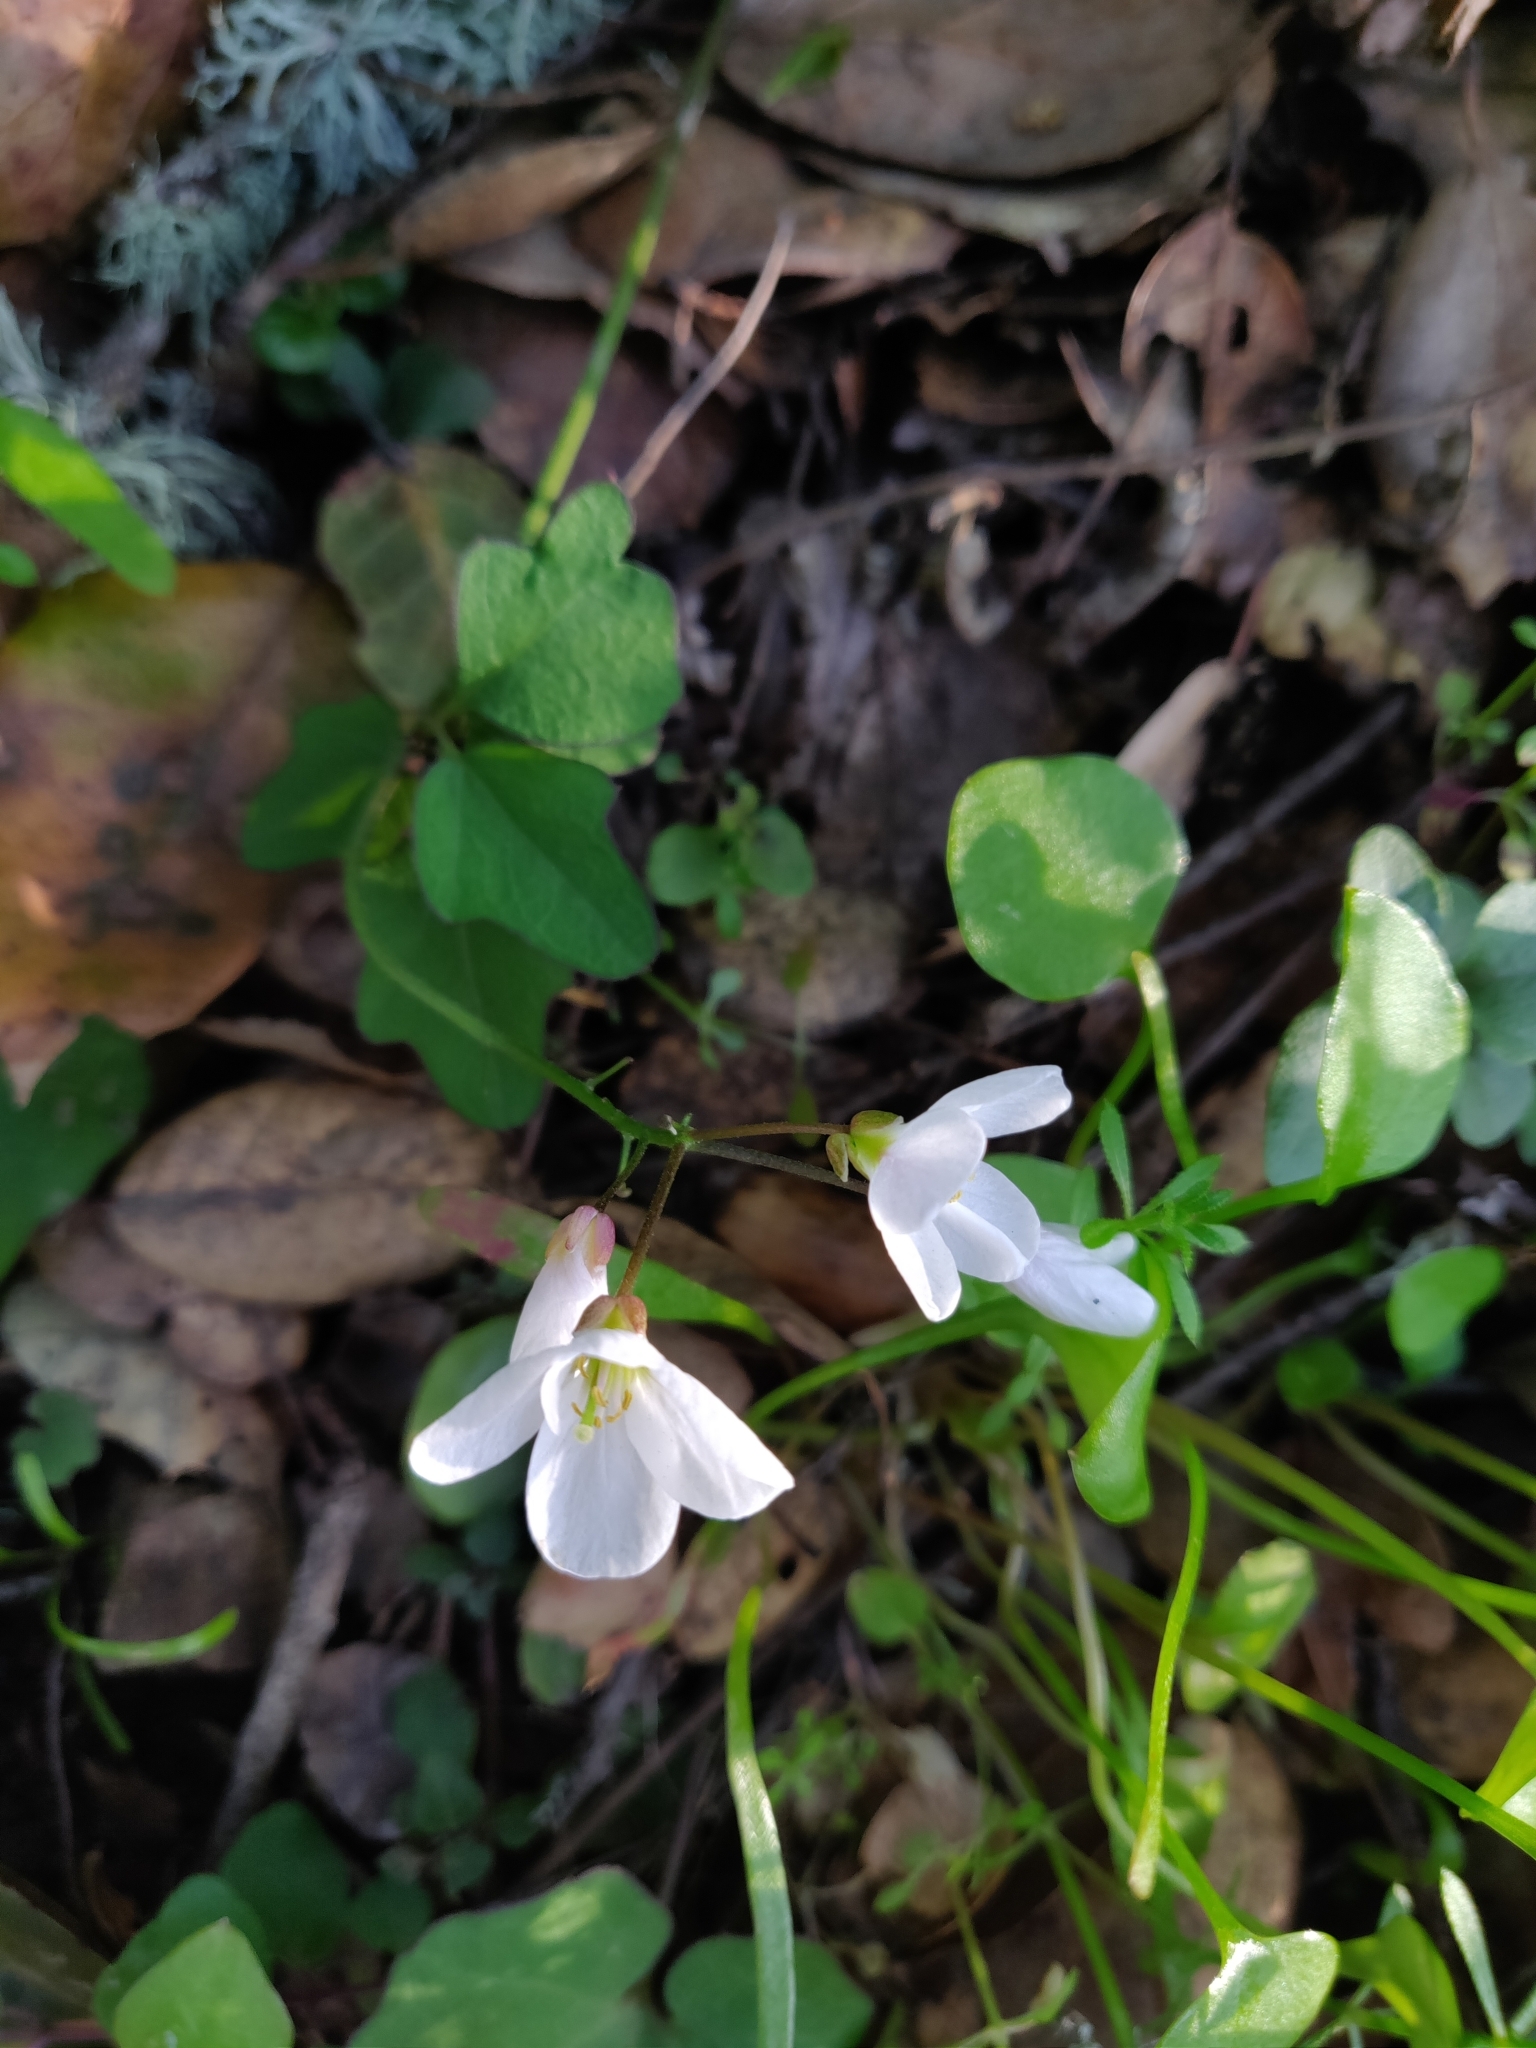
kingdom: Plantae
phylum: Tracheophyta
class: Magnoliopsida
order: Brassicales
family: Brassicaceae
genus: Cardamine
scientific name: Cardamine californica
